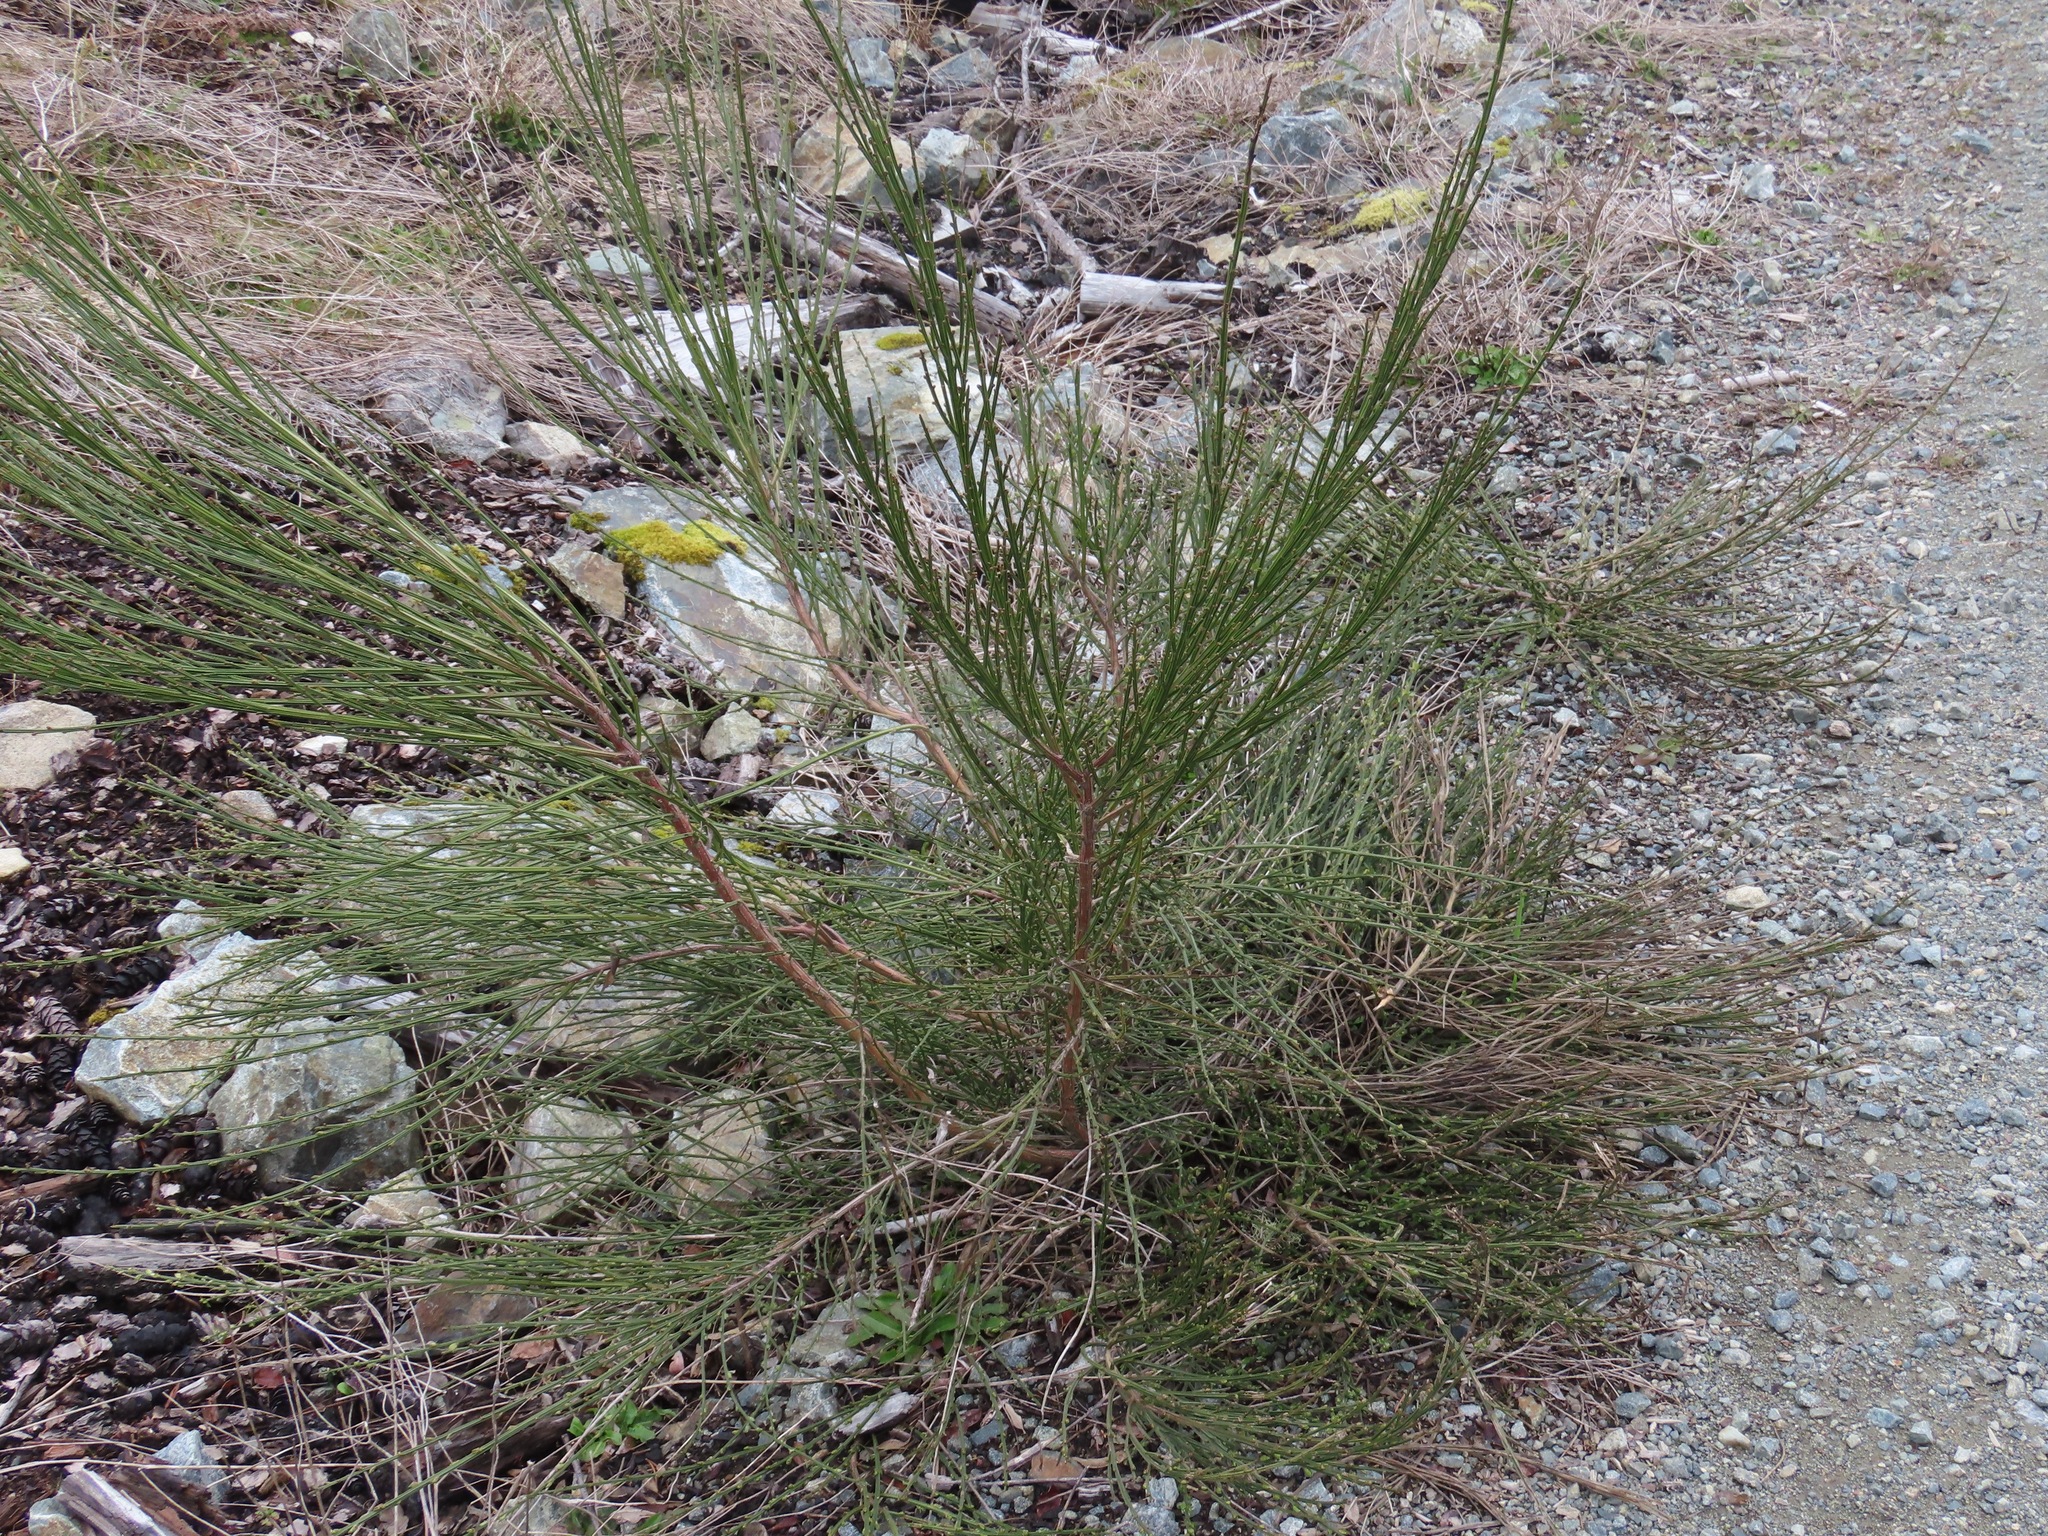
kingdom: Plantae
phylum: Tracheophyta
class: Magnoliopsida
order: Fabales
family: Fabaceae
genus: Cytisus
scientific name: Cytisus scoparius
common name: Scotch broom
